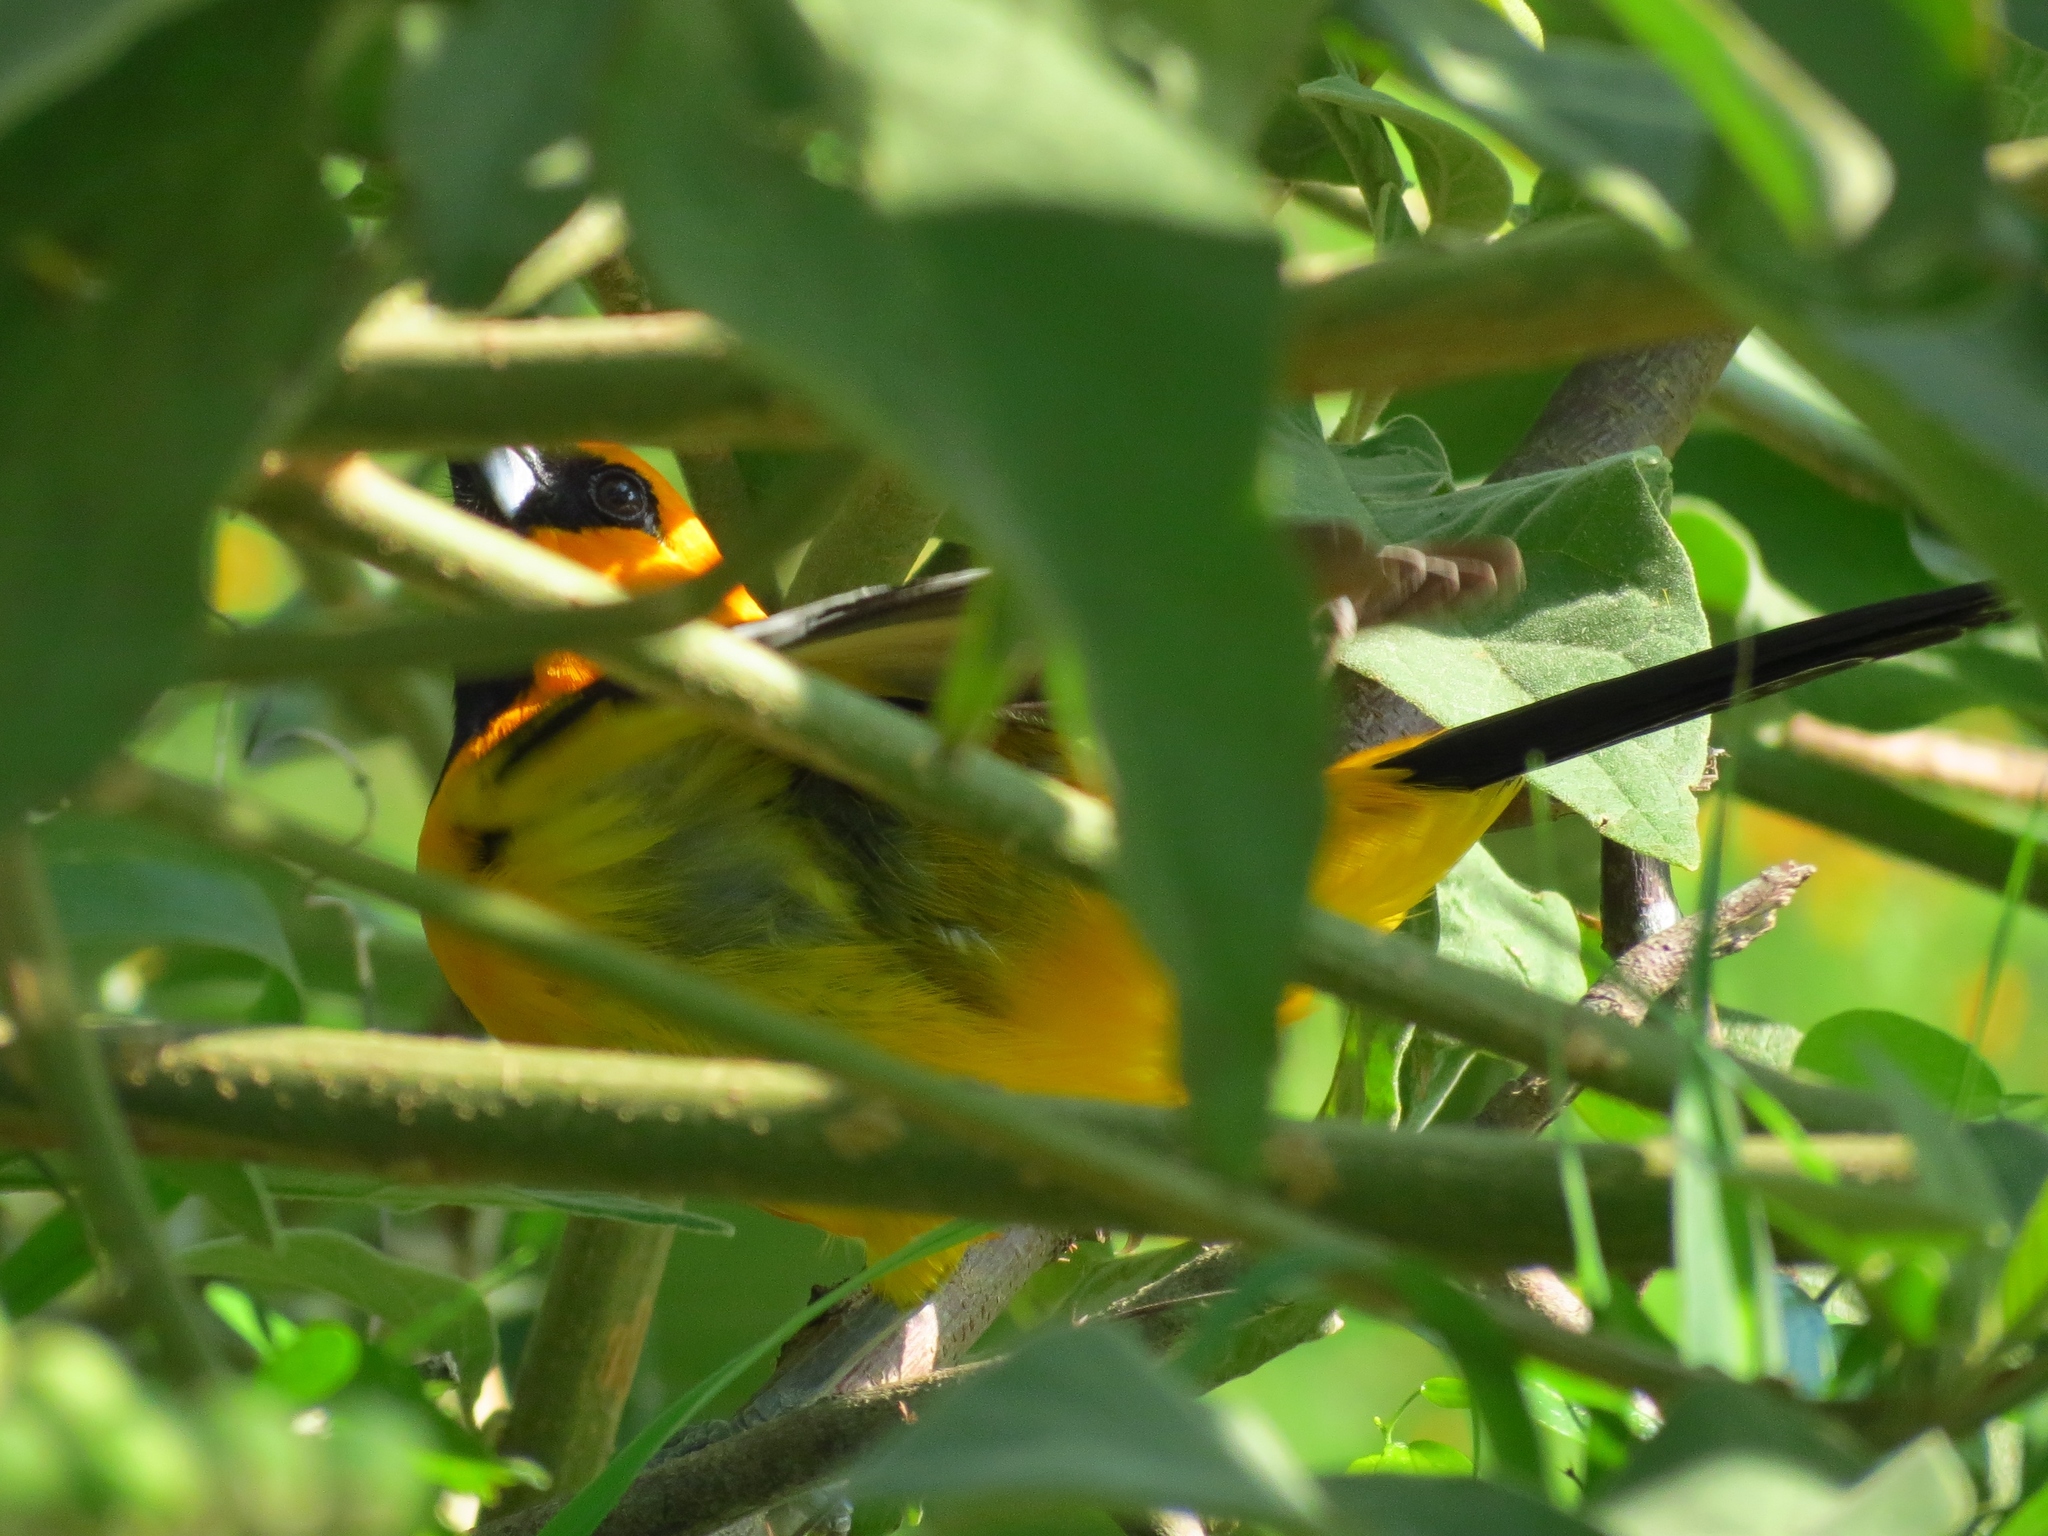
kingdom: Animalia
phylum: Chordata
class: Aves
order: Passeriformes
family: Icteridae
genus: Icterus
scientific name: Icterus gularis
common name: Altamira oriole
